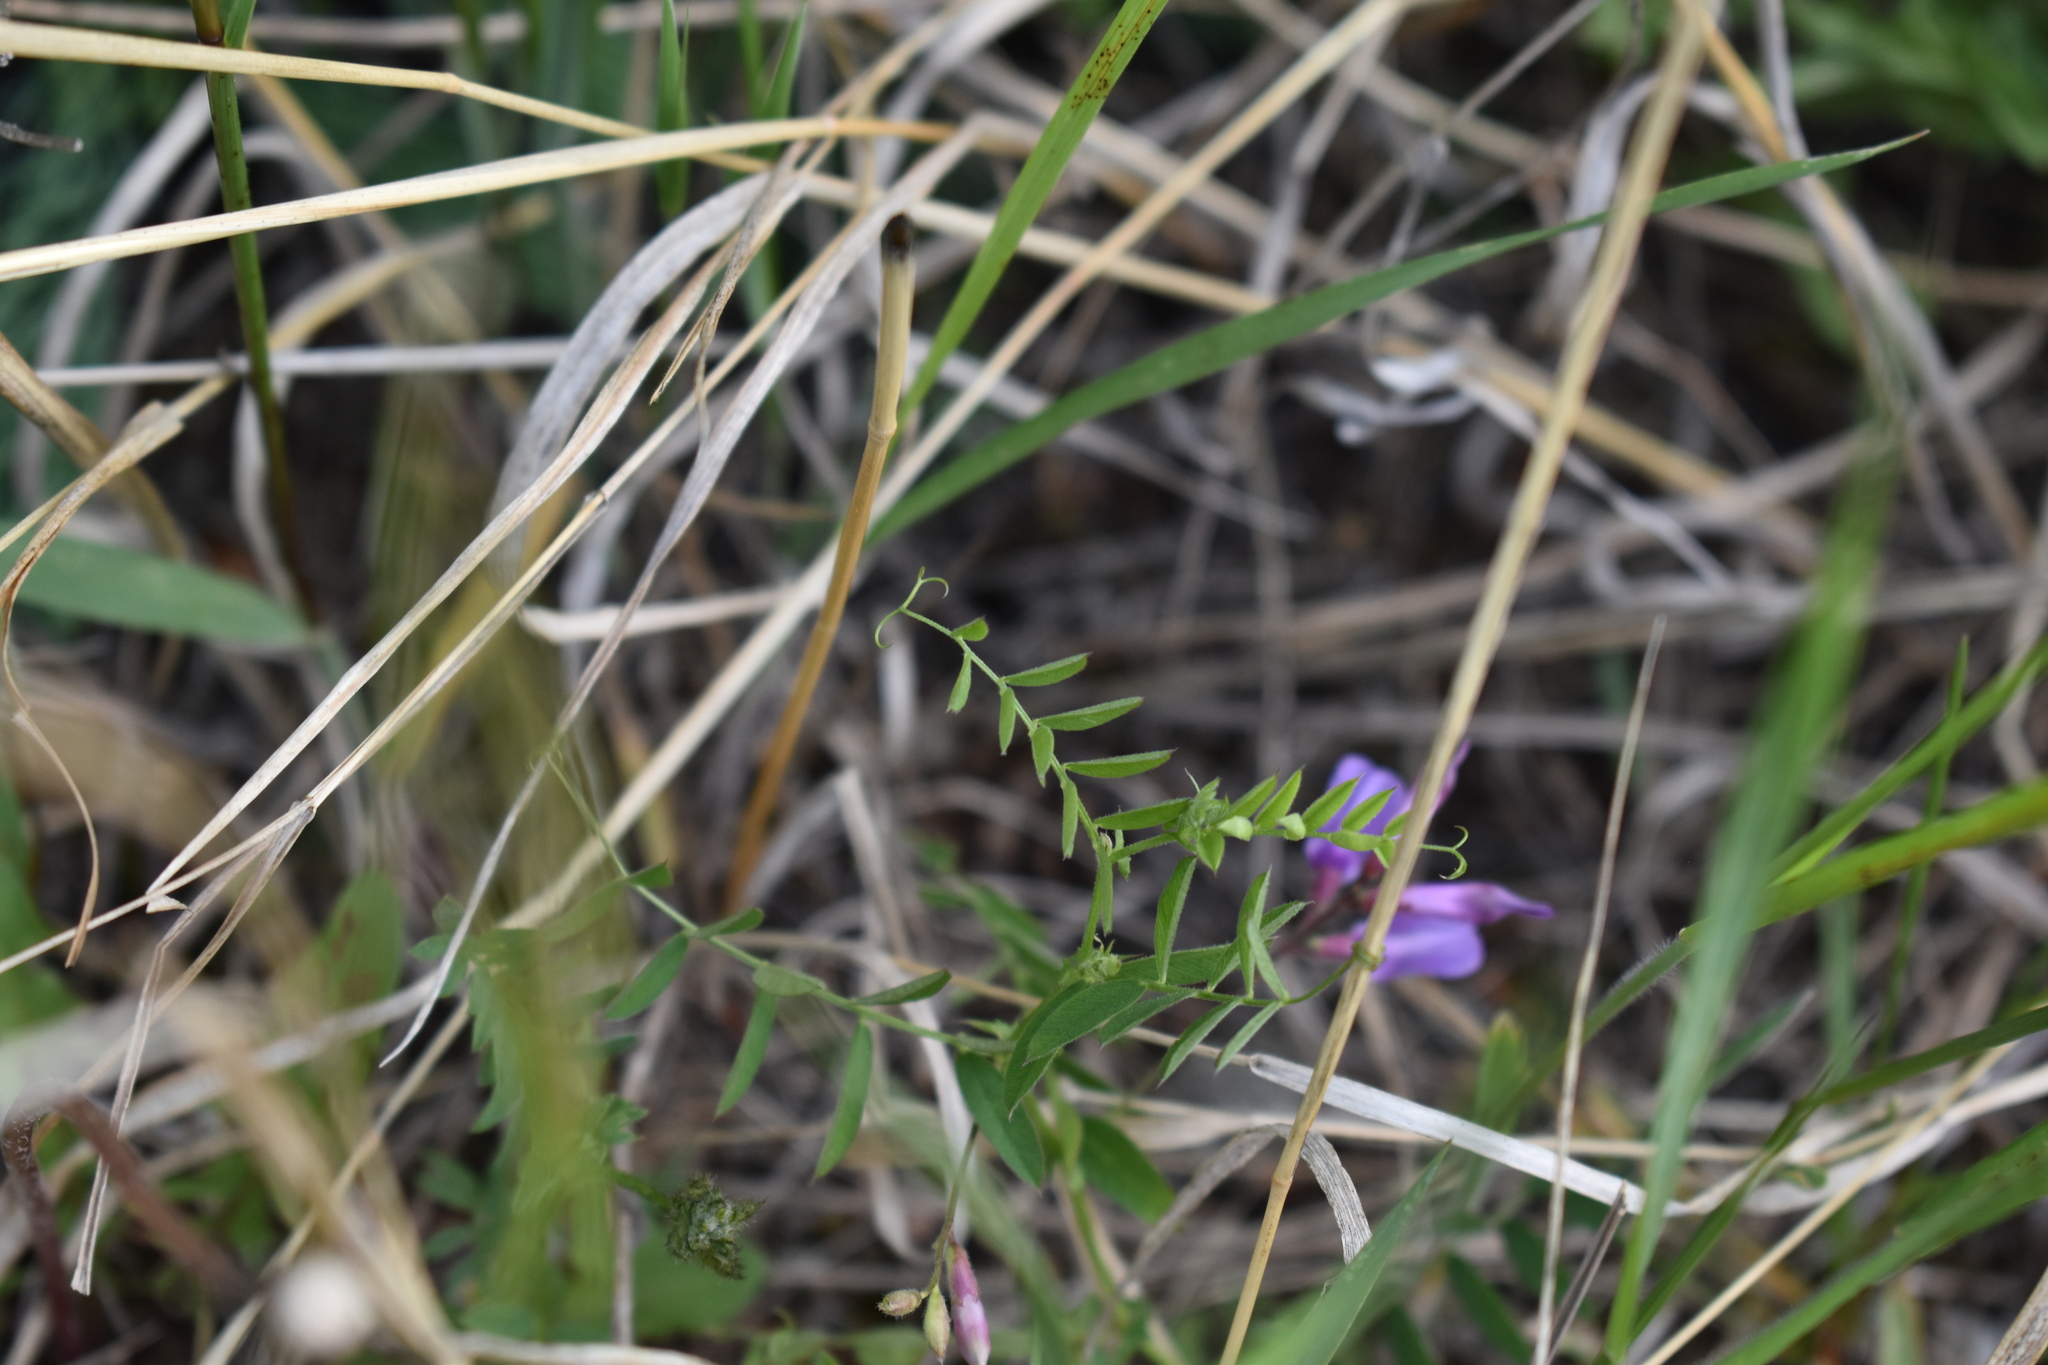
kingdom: Plantae
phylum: Tracheophyta
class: Magnoliopsida
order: Fabales
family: Fabaceae
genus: Vicia
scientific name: Vicia americana
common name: American vetch
